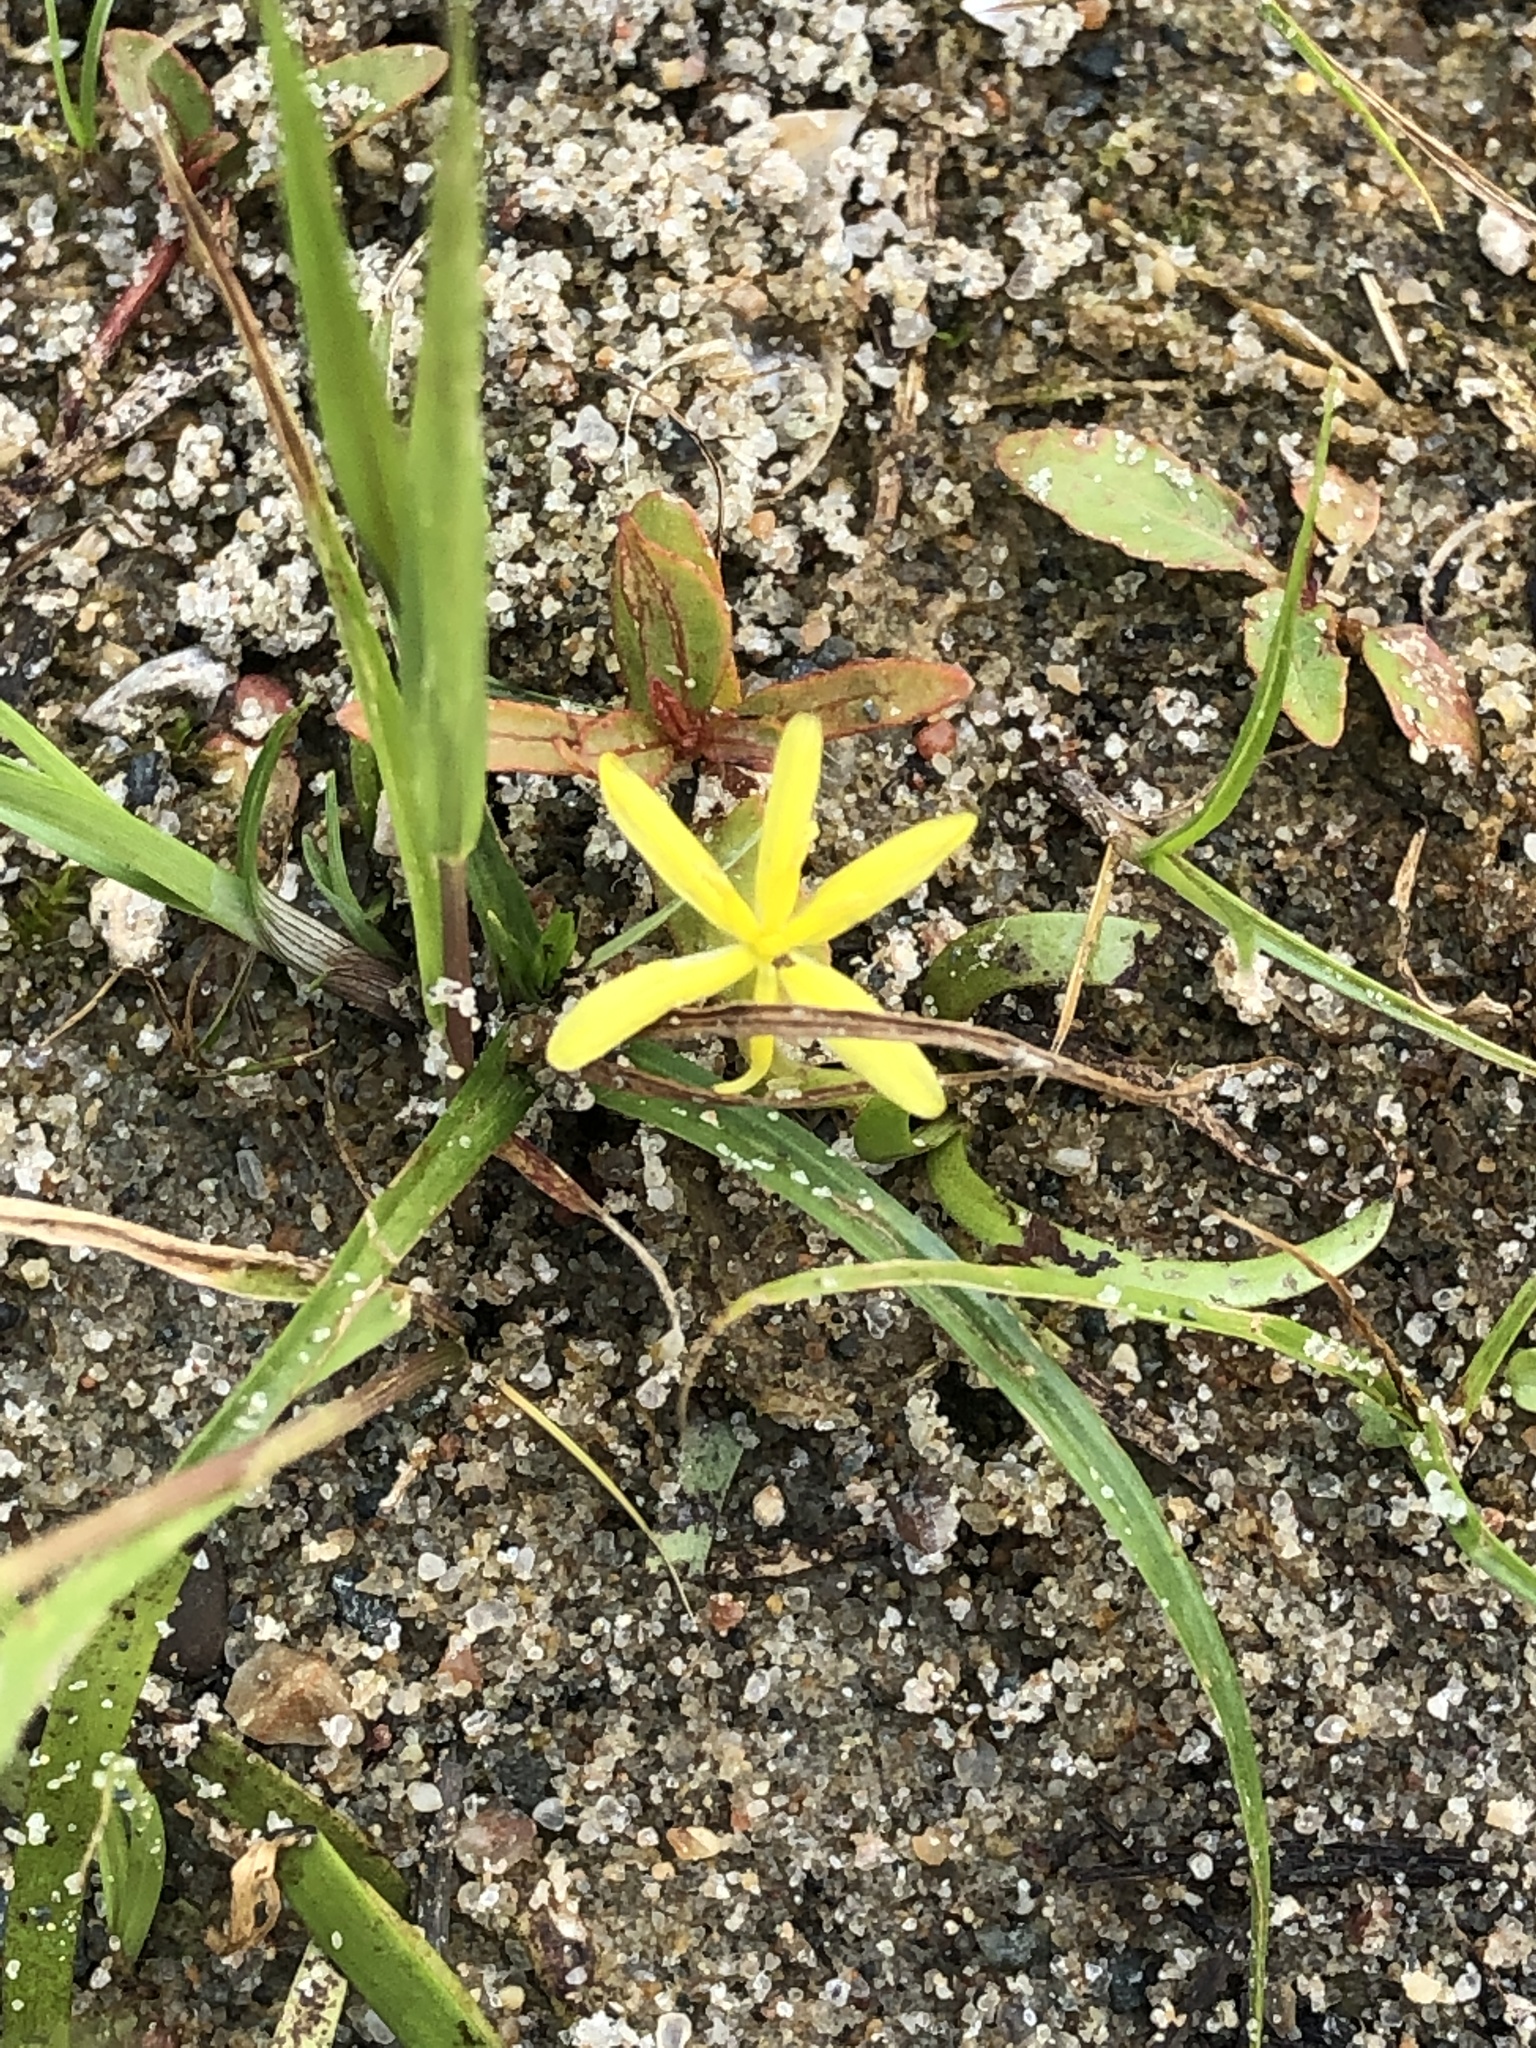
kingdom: Plantae
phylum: Tracheophyta
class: Liliopsida
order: Commelinales
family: Pontederiaceae
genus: Heteranthera
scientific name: Heteranthera dubia
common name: Grass-leaved mud plantain
